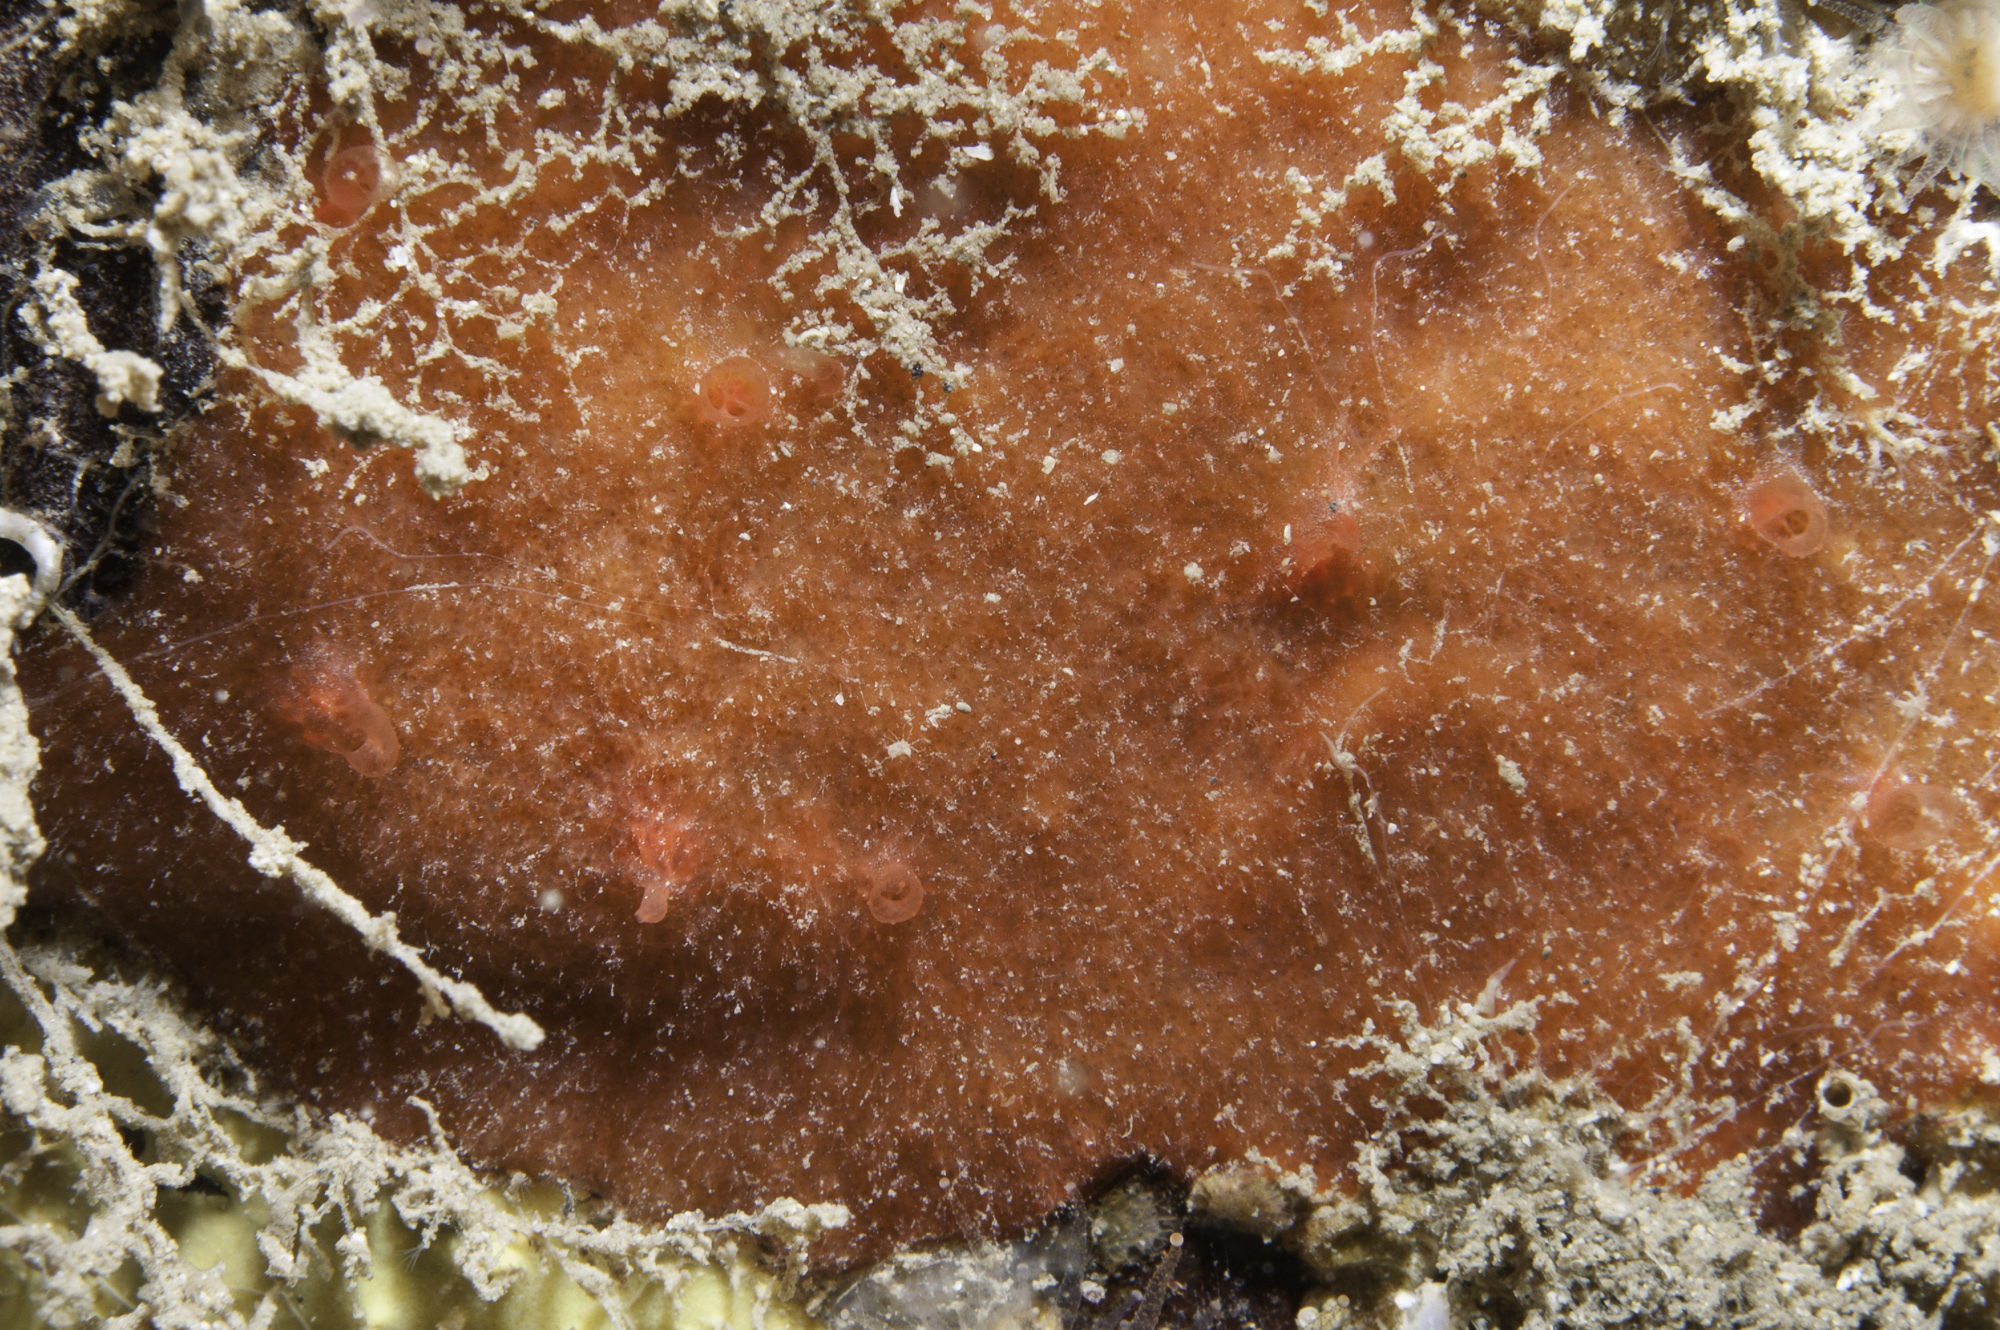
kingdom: Animalia
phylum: Porifera
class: Demospongiae
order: Axinellida
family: Raspailiidae
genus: Hymeraphia
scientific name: Hymeraphia stellifera
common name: Star horny sponge
